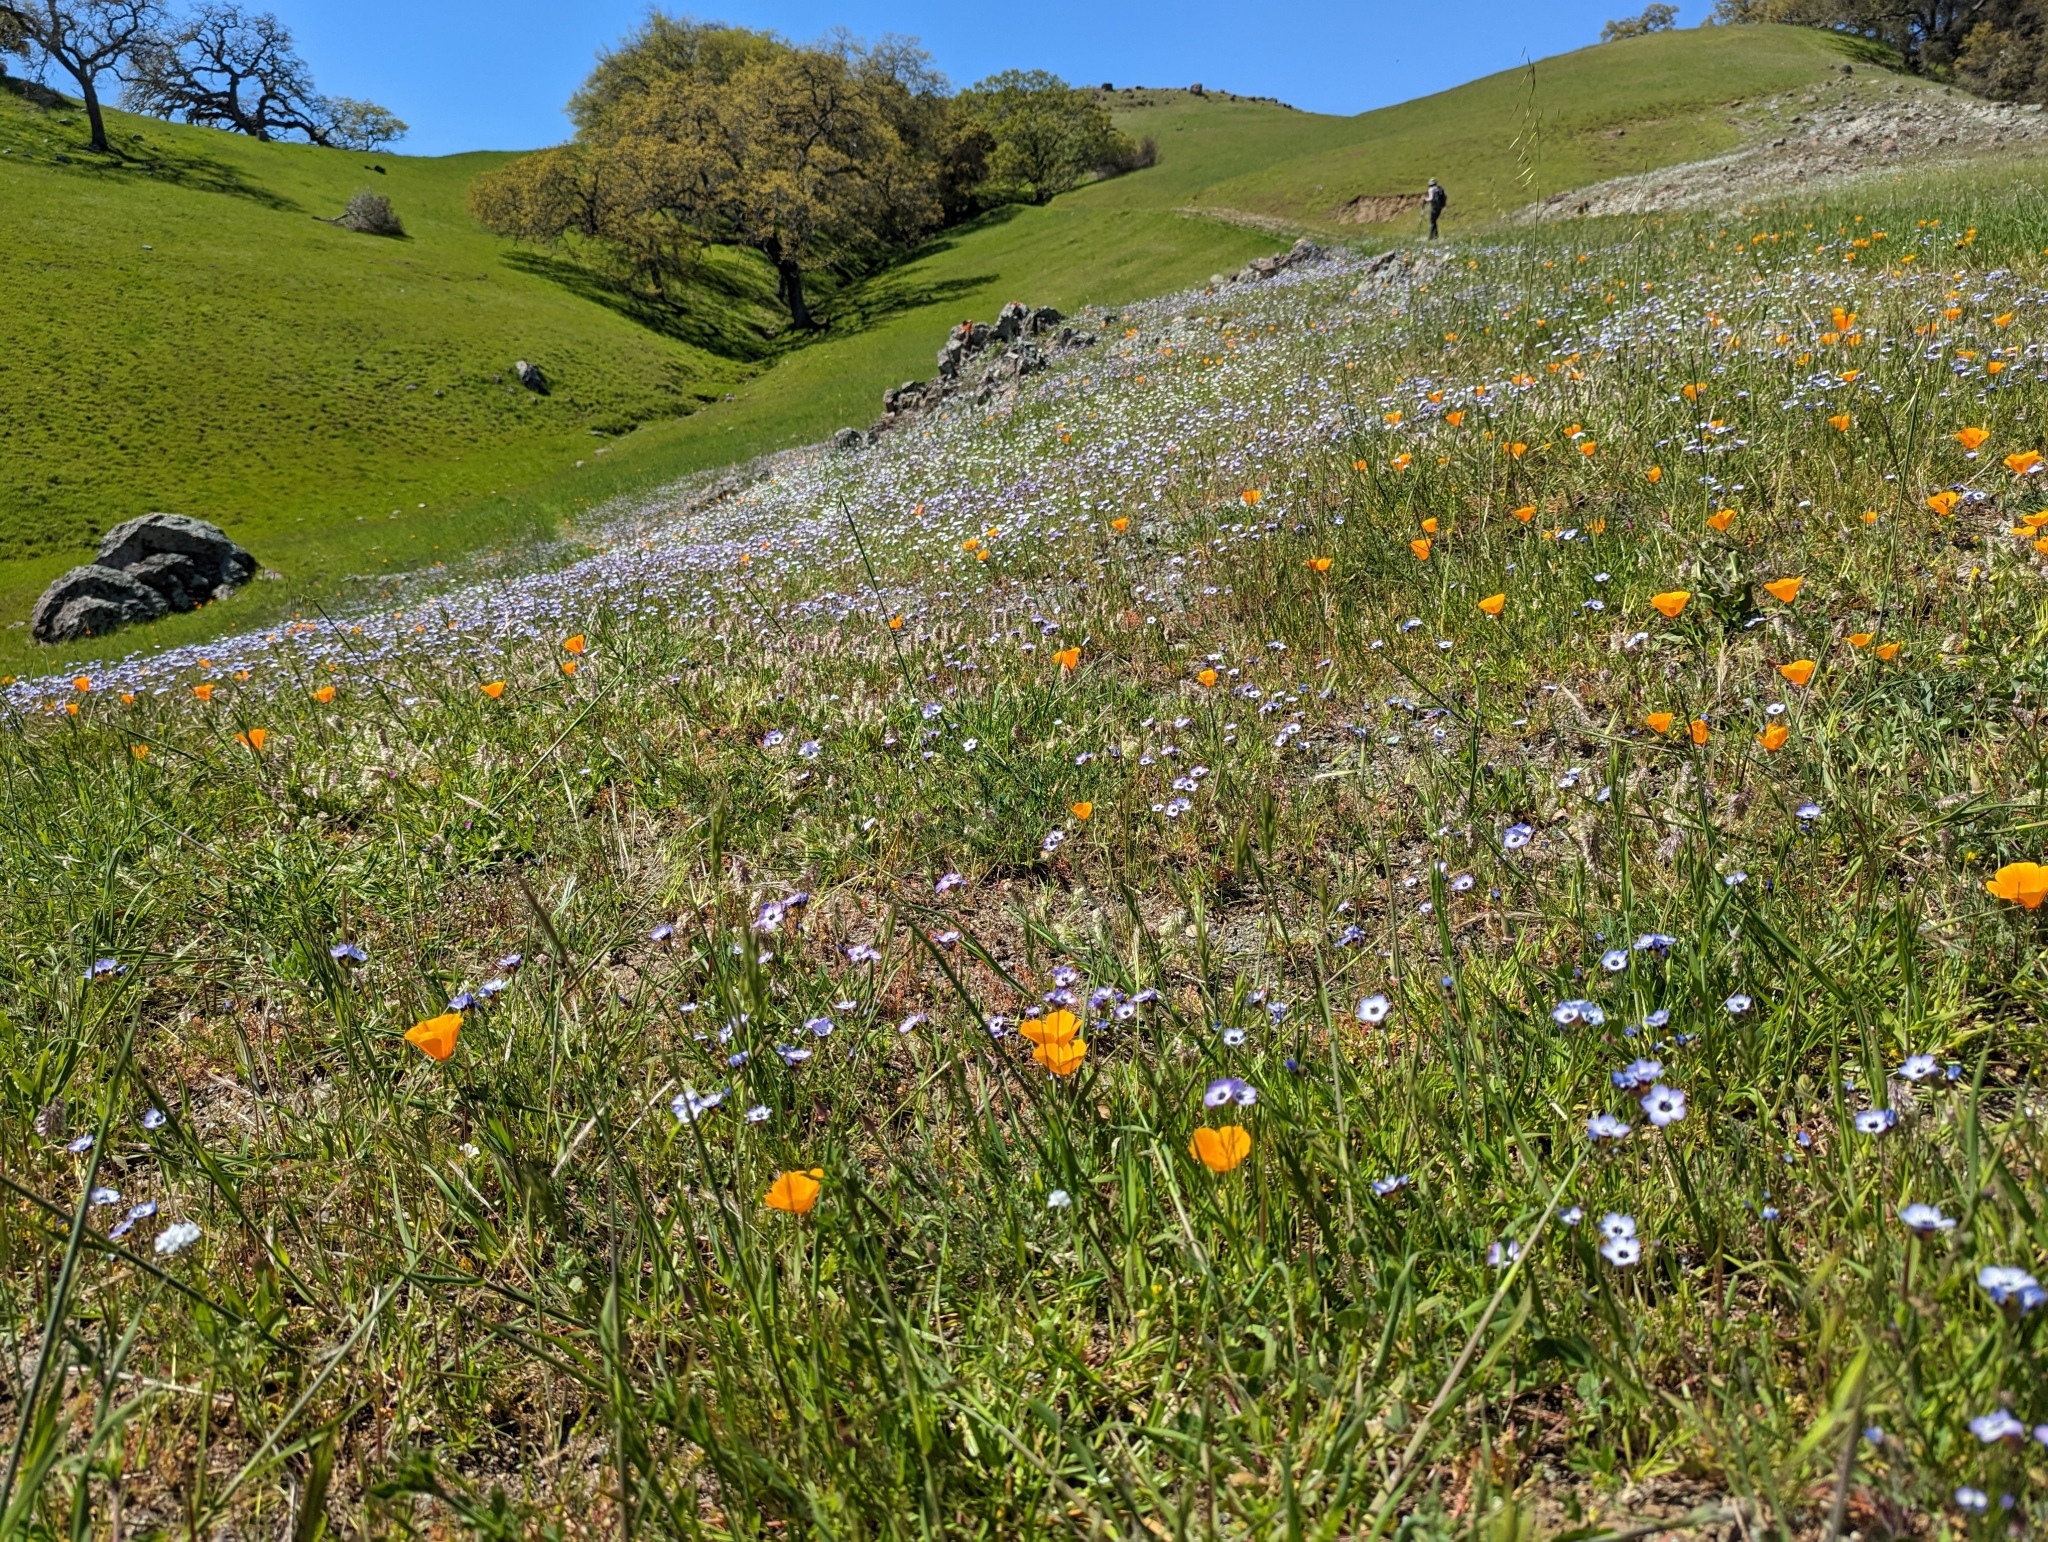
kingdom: Plantae
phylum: Tracheophyta
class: Magnoliopsida
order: Ericales
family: Polemoniaceae
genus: Gilia
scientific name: Gilia tricolor
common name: Bird's-eyes
